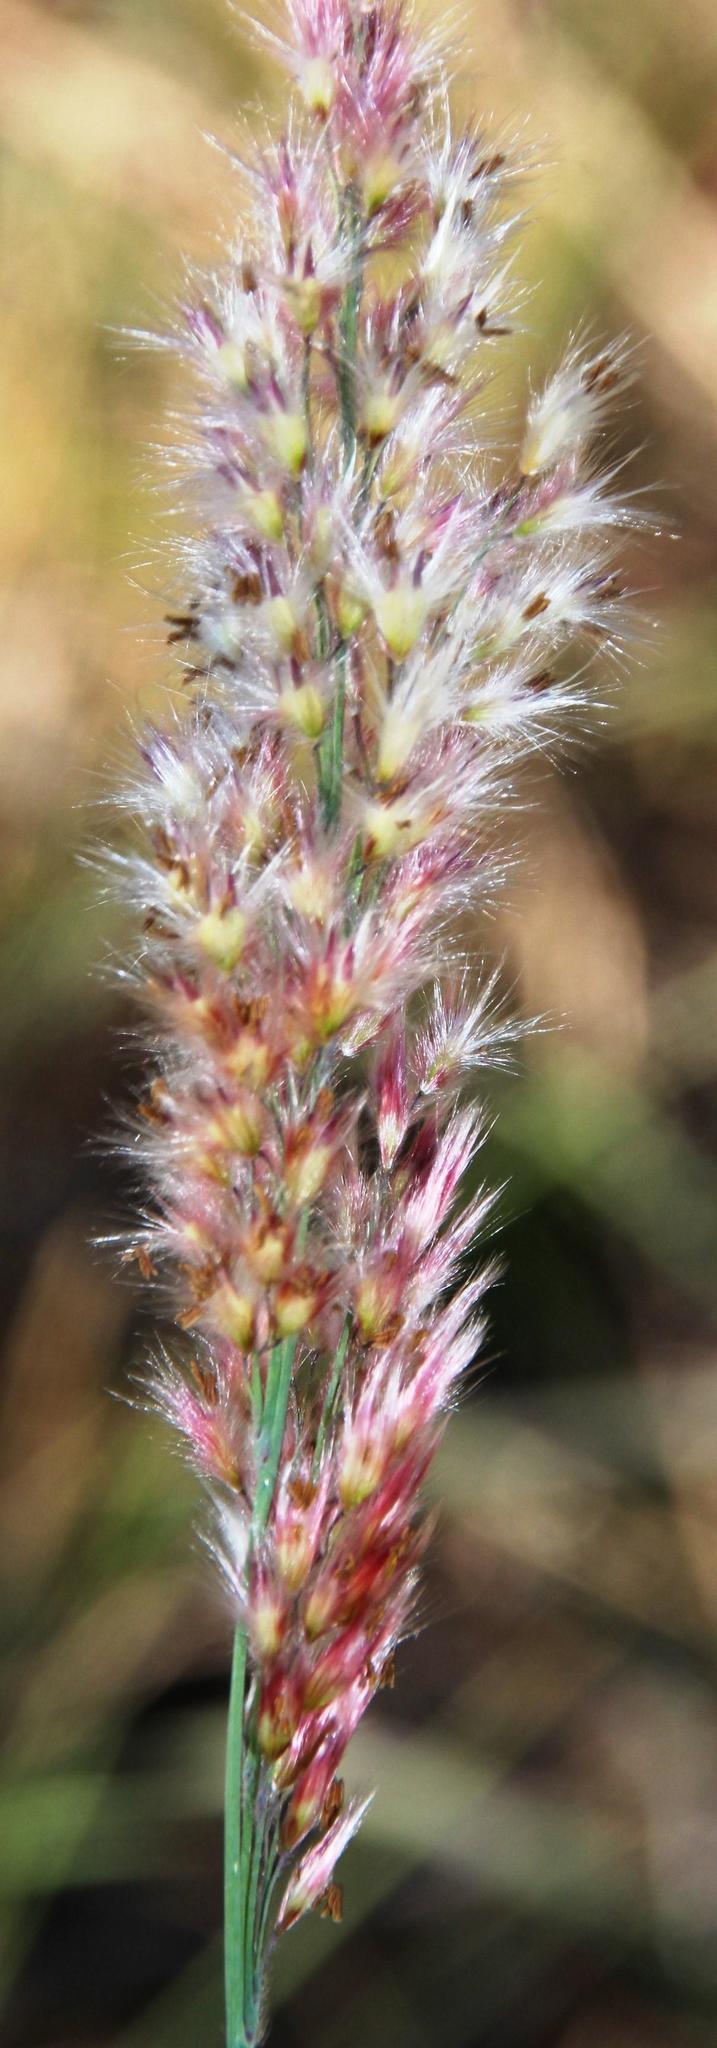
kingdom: Plantae
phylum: Tracheophyta
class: Liliopsida
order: Poales
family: Poaceae
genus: Melinis
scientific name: Melinis repens
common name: Rose natal grass
